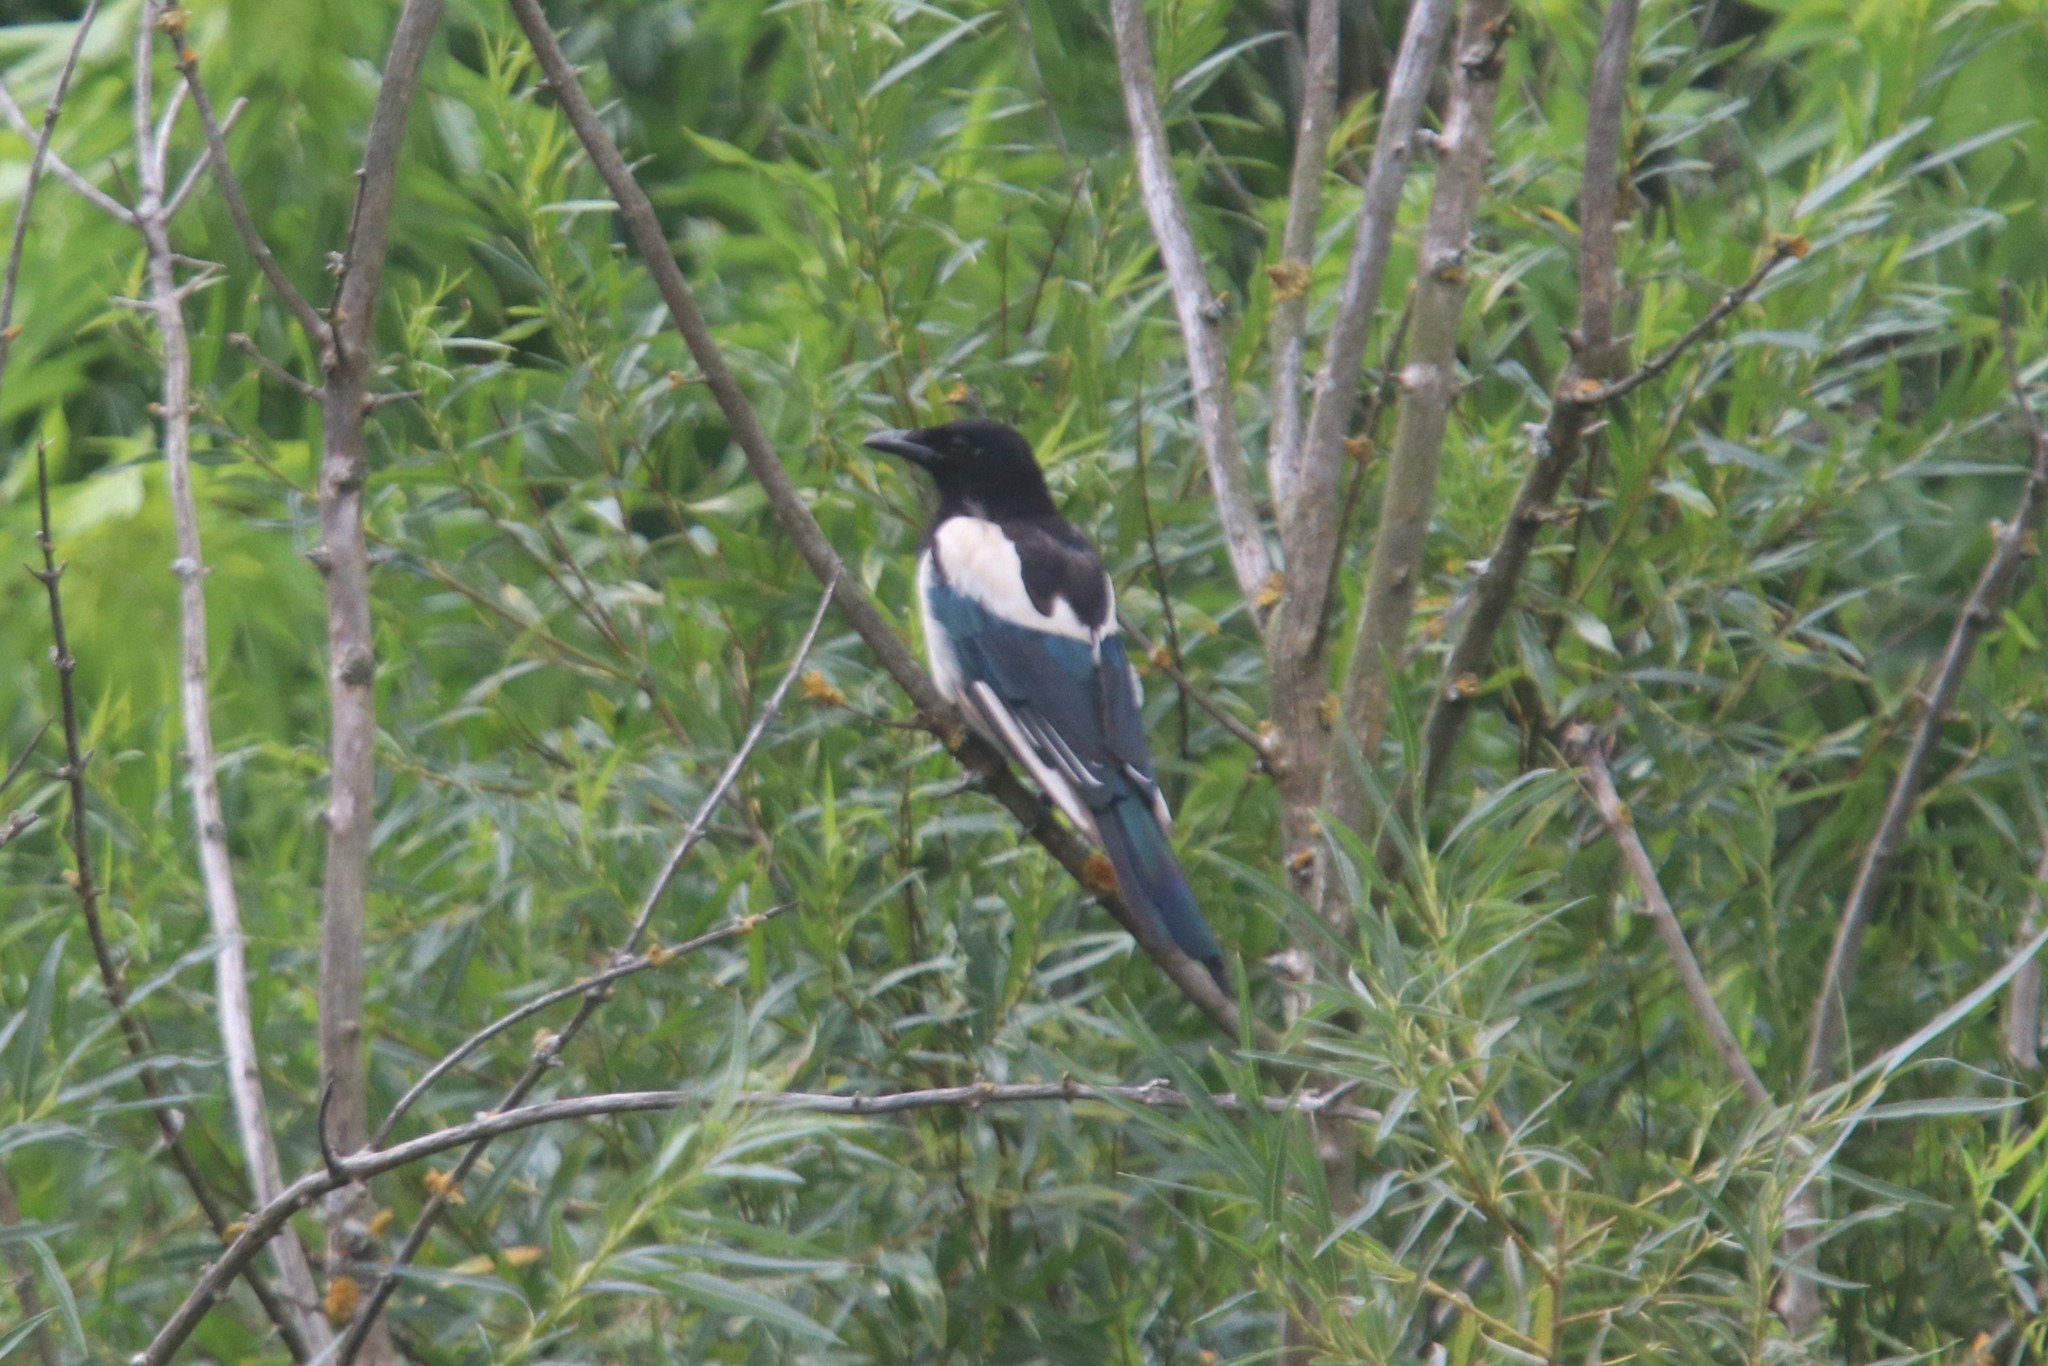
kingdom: Animalia
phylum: Chordata
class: Aves
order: Passeriformes
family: Corvidae
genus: Pica
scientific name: Pica pica
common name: Eurasian magpie
